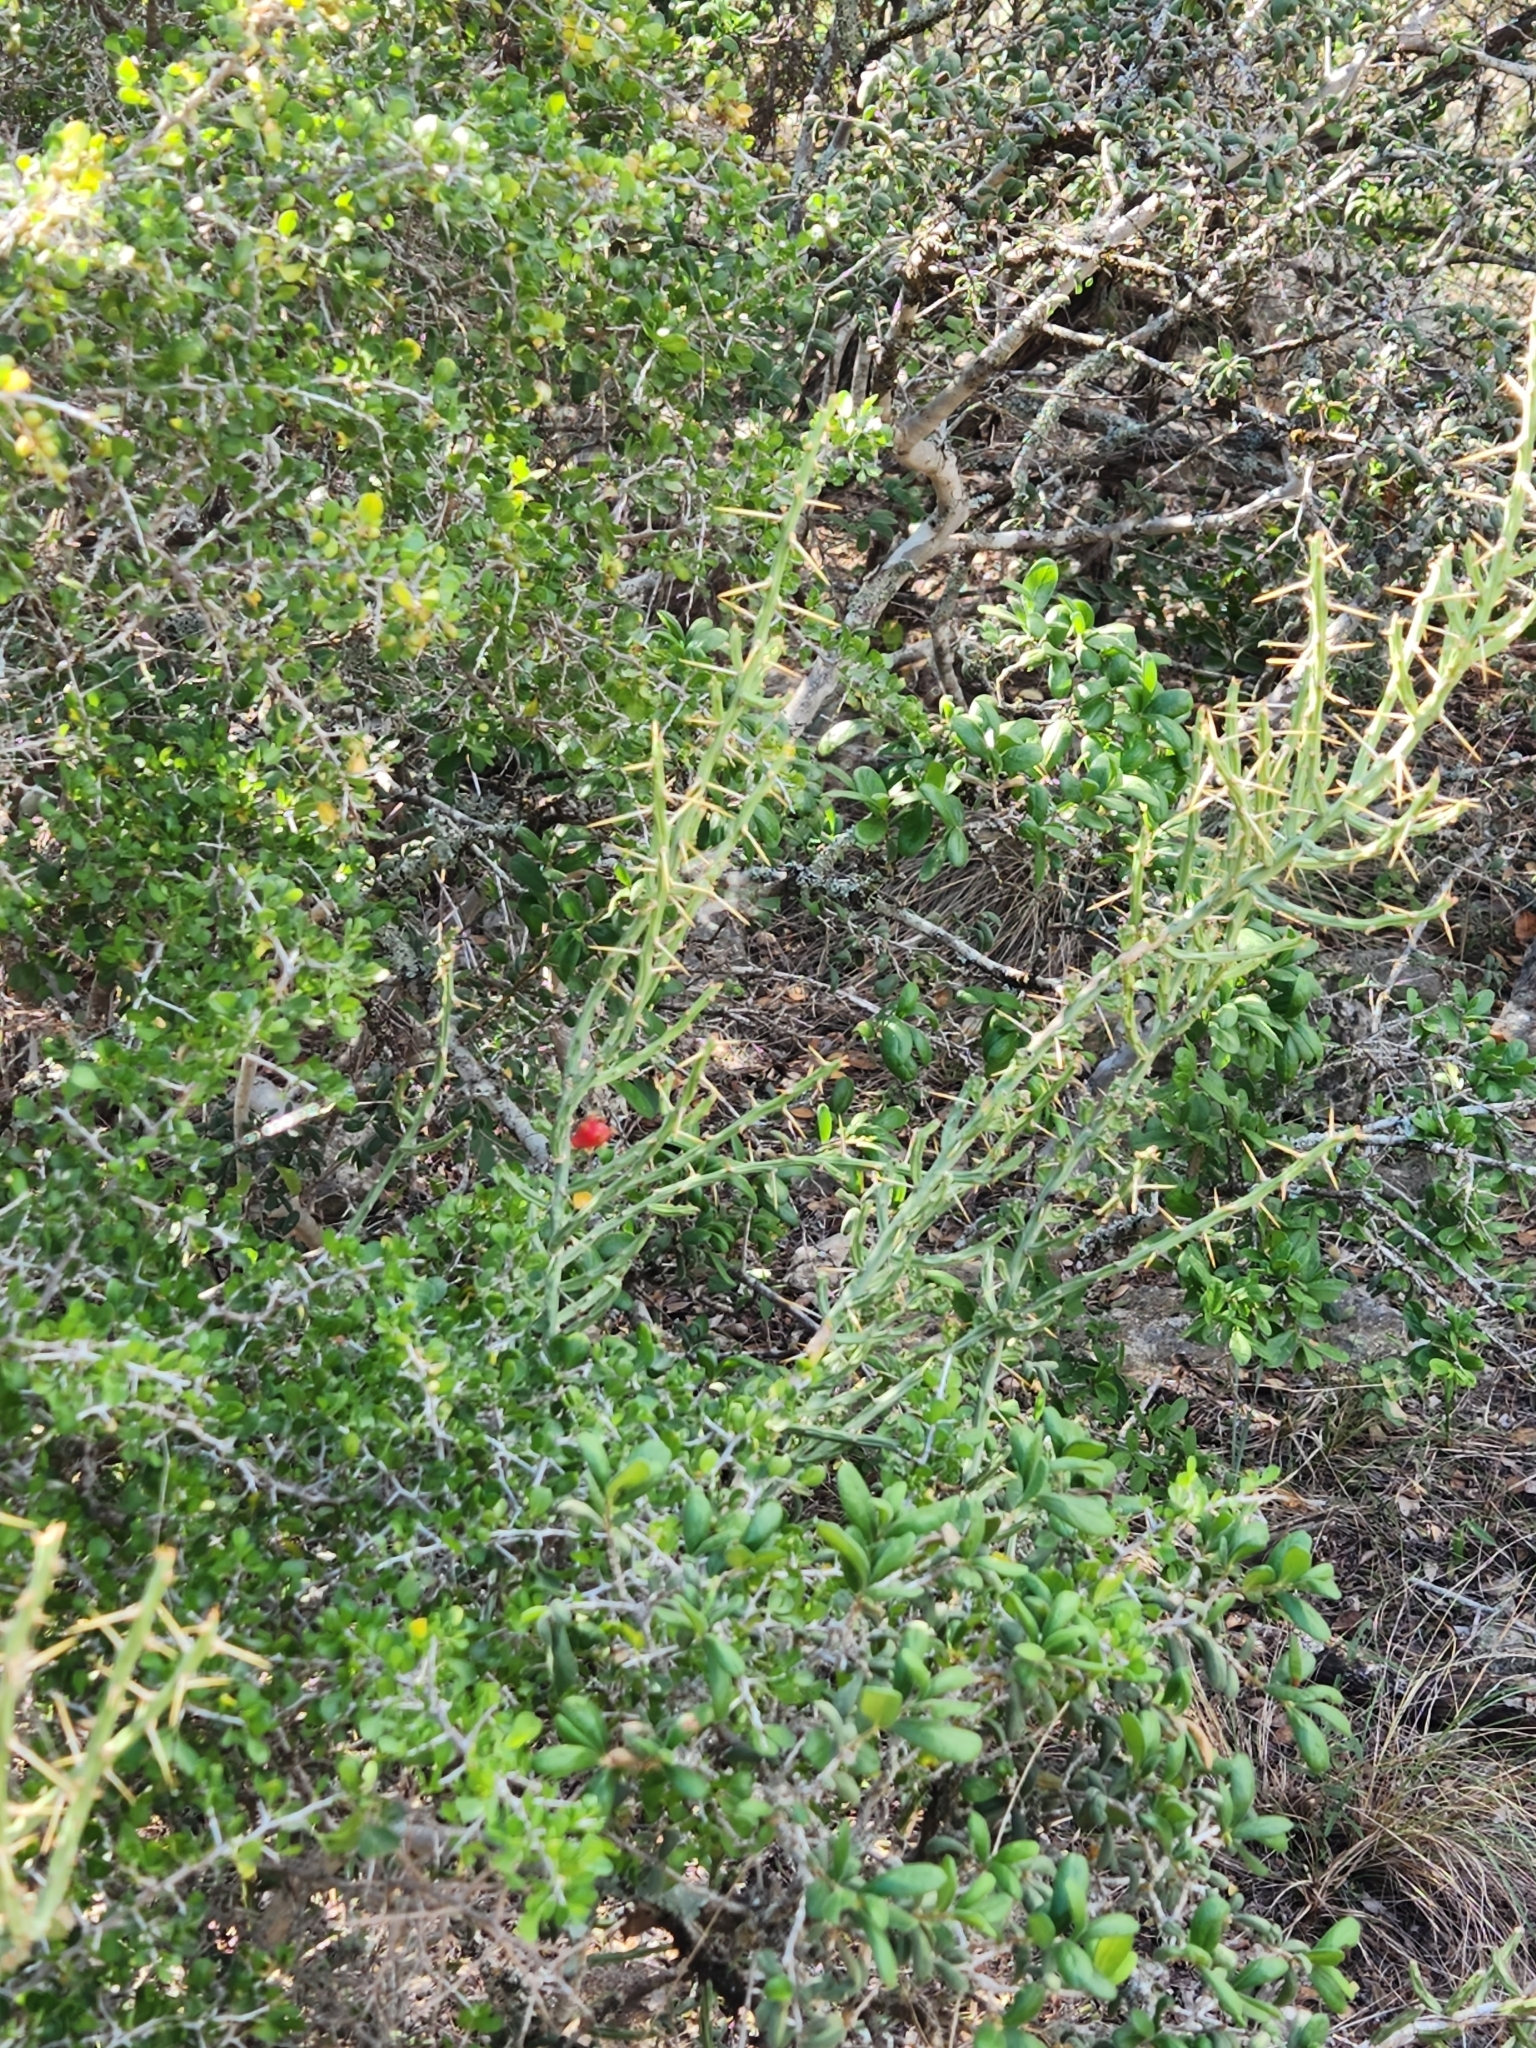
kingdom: Plantae
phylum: Tracheophyta
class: Magnoliopsida
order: Caryophyllales
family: Cactaceae
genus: Cylindropuntia
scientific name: Cylindropuntia leptocaulis
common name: Christmas cactus
